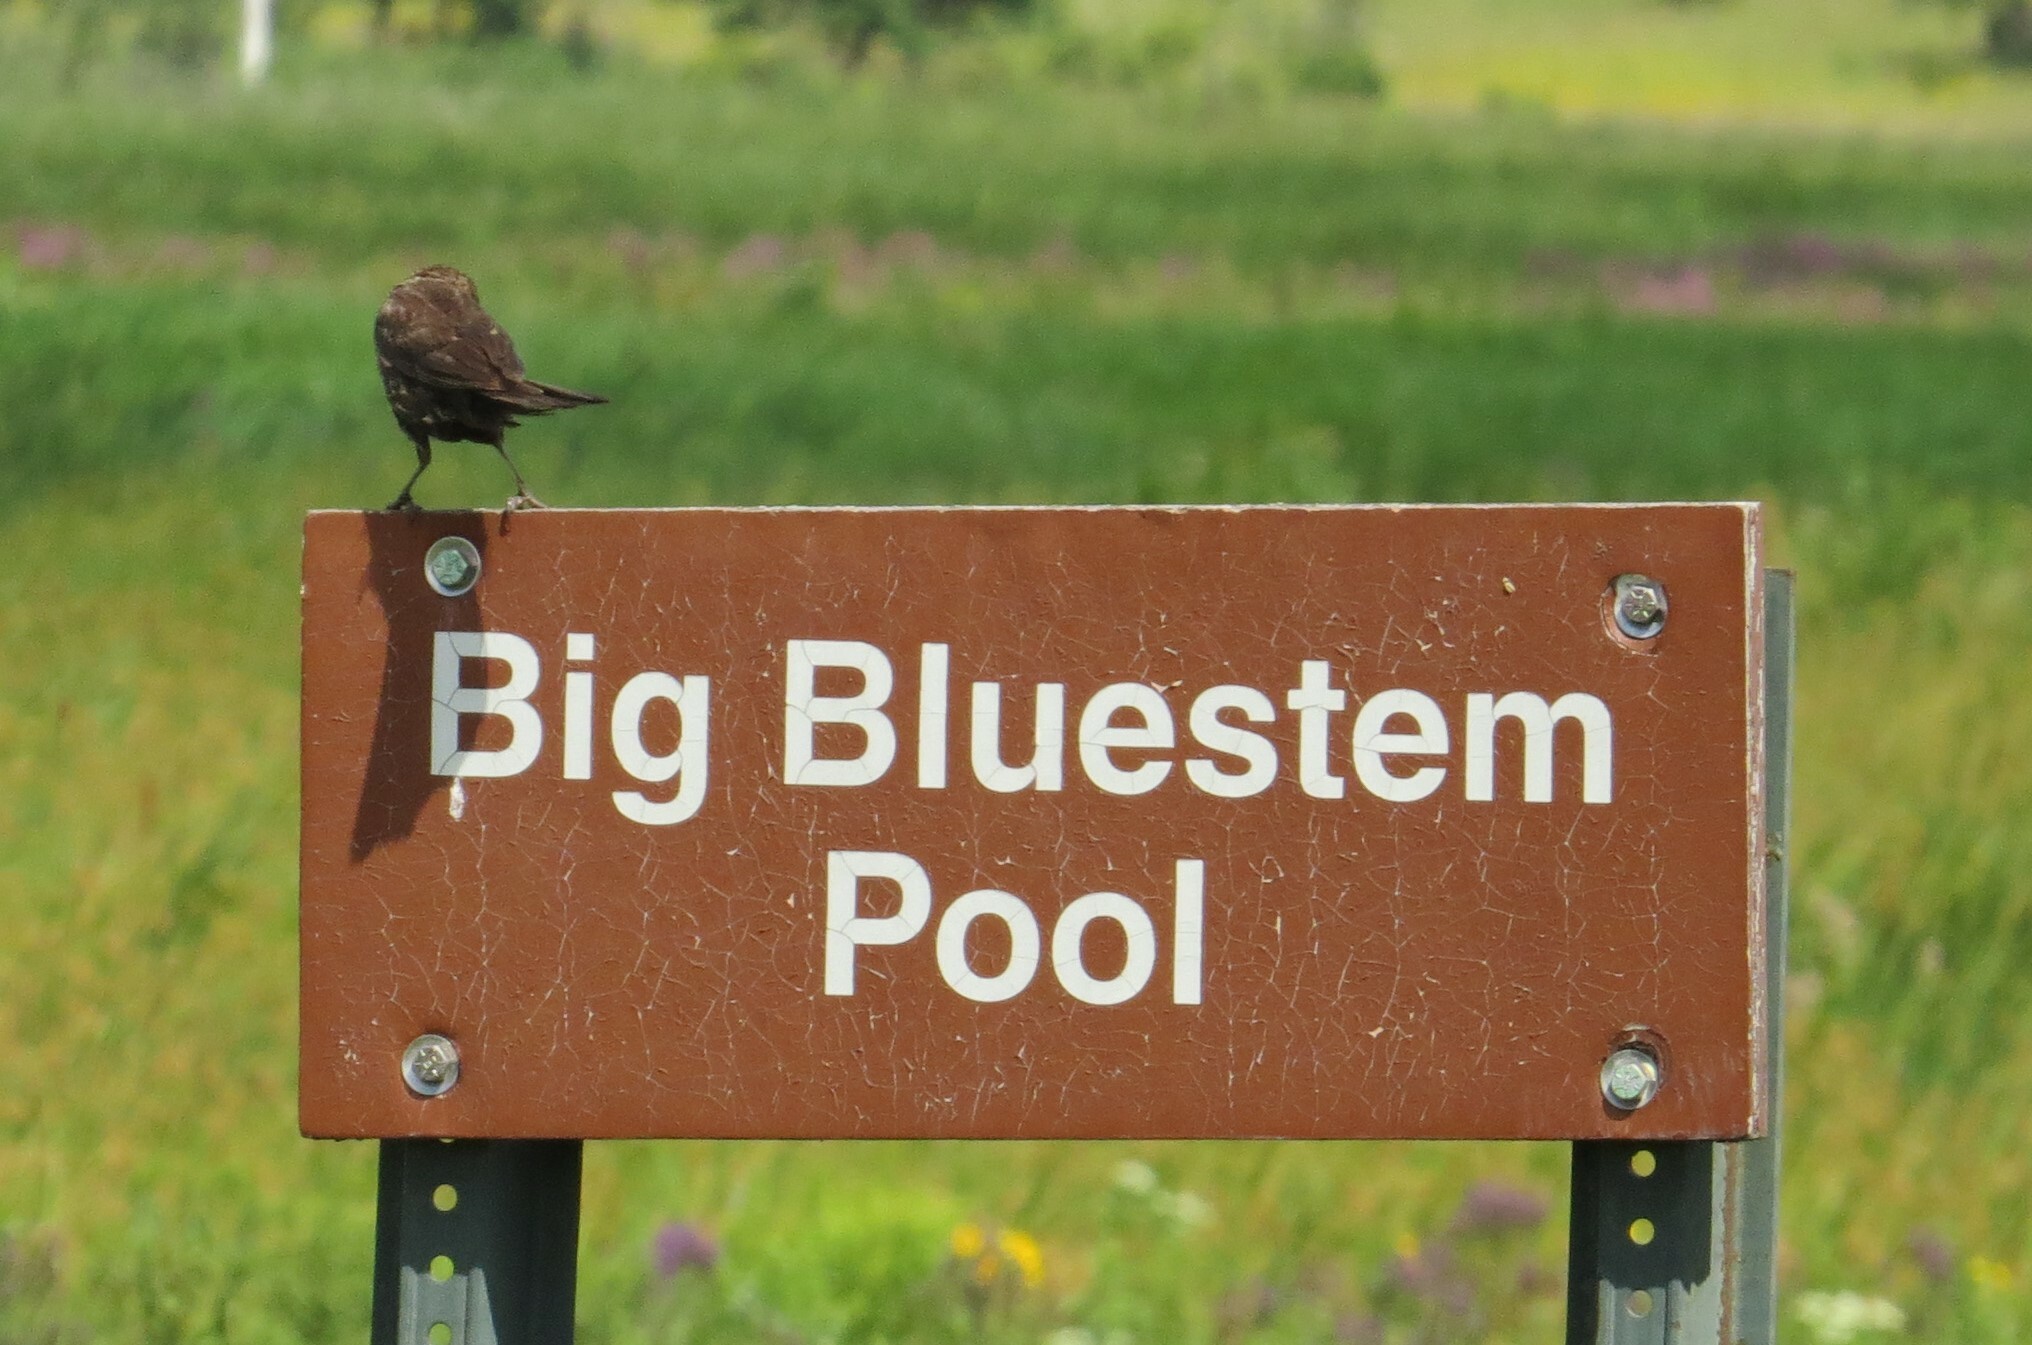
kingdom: Animalia
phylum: Chordata
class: Aves
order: Passeriformes
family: Icteridae
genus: Agelaius
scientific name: Agelaius phoeniceus
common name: Red-winged blackbird
